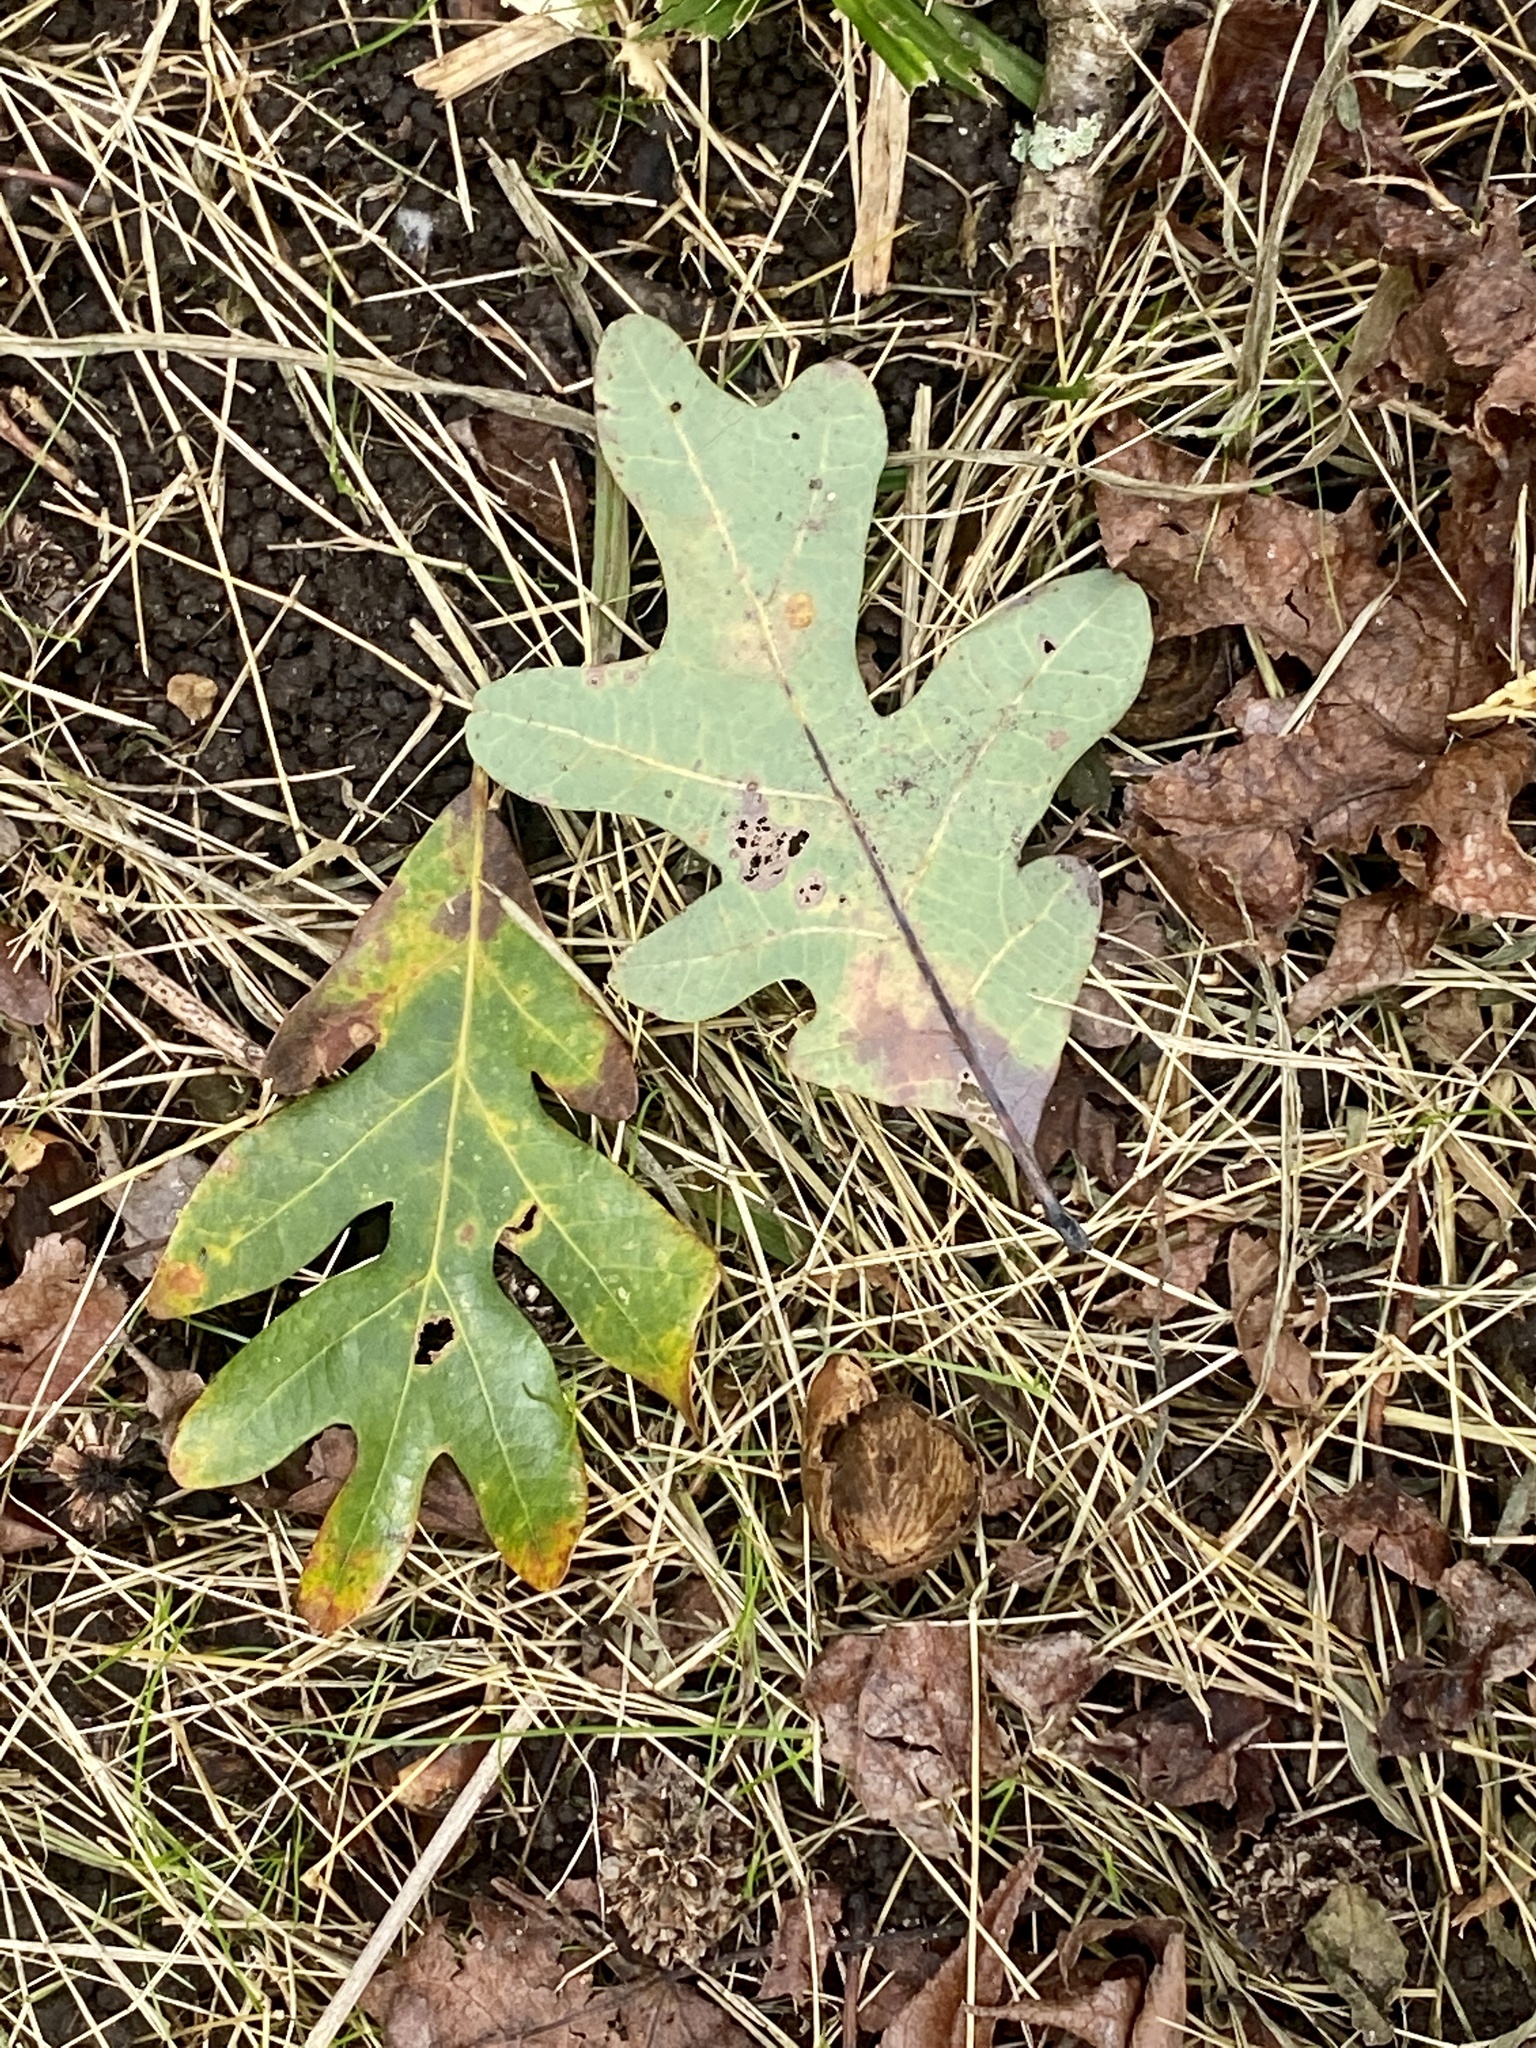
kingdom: Plantae
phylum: Tracheophyta
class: Magnoliopsida
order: Fagales
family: Fagaceae
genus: Quercus
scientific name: Quercus alba
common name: White oak
